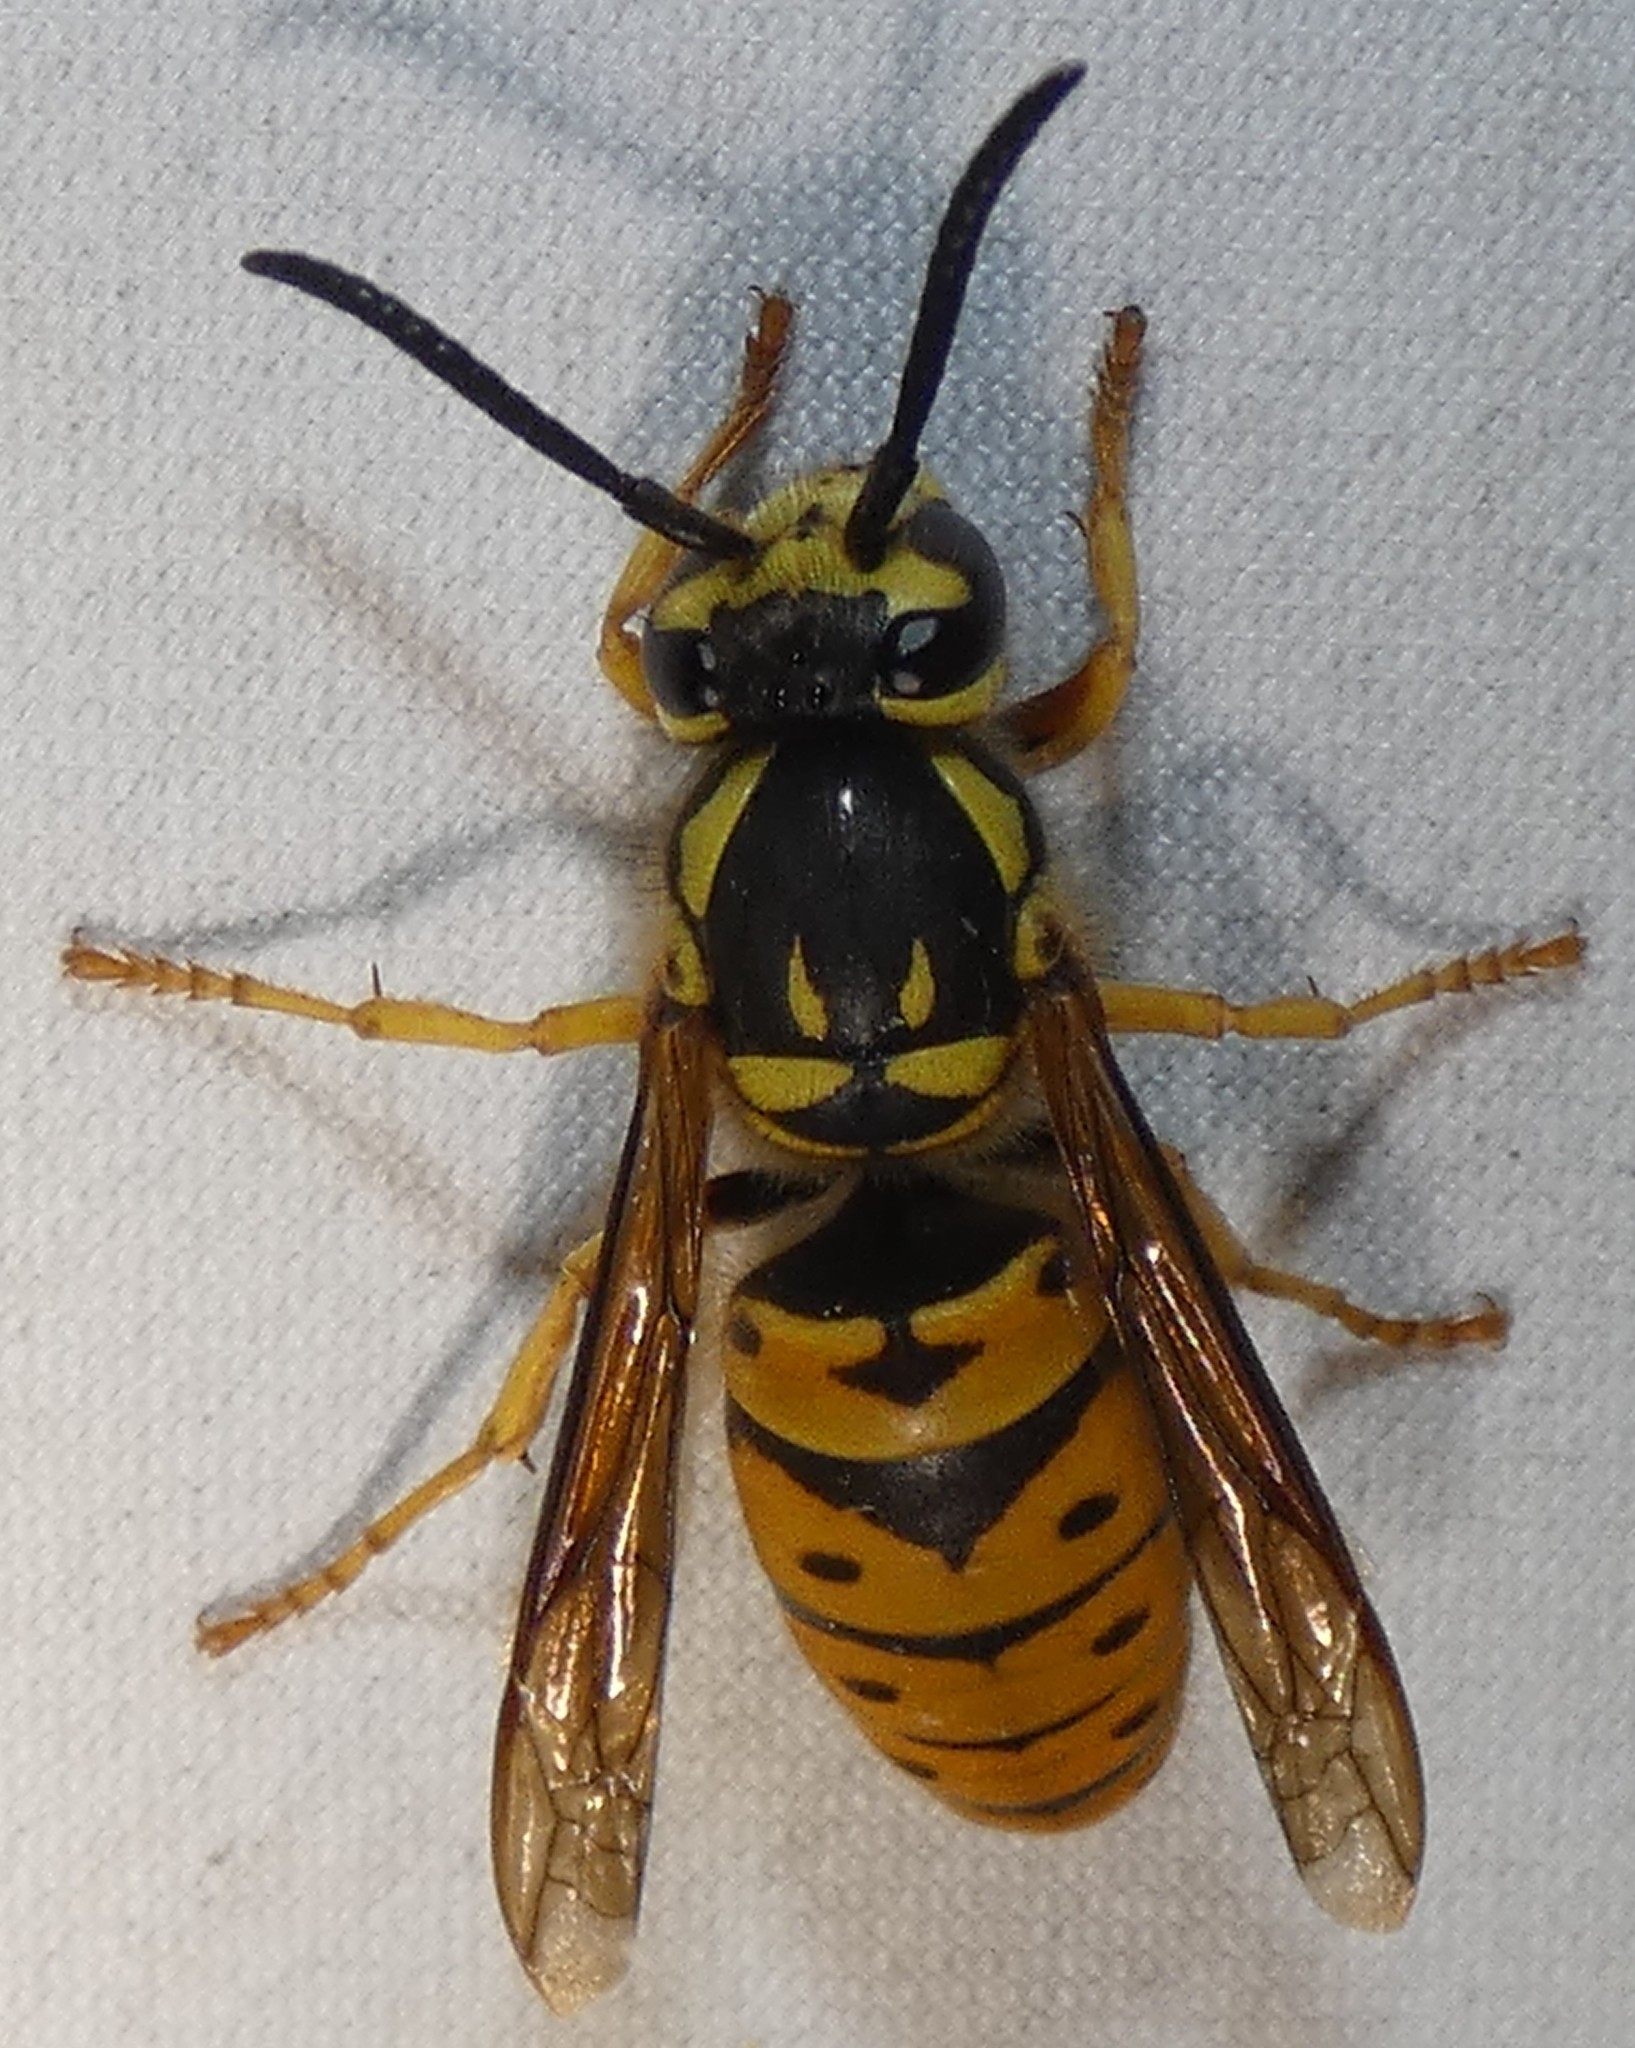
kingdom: Animalia
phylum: Arthropoda
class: Insecta
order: Hymenoptera
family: Vespidae
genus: Vespula
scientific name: Vespula maculifrons
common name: Eastern yellowjacket
